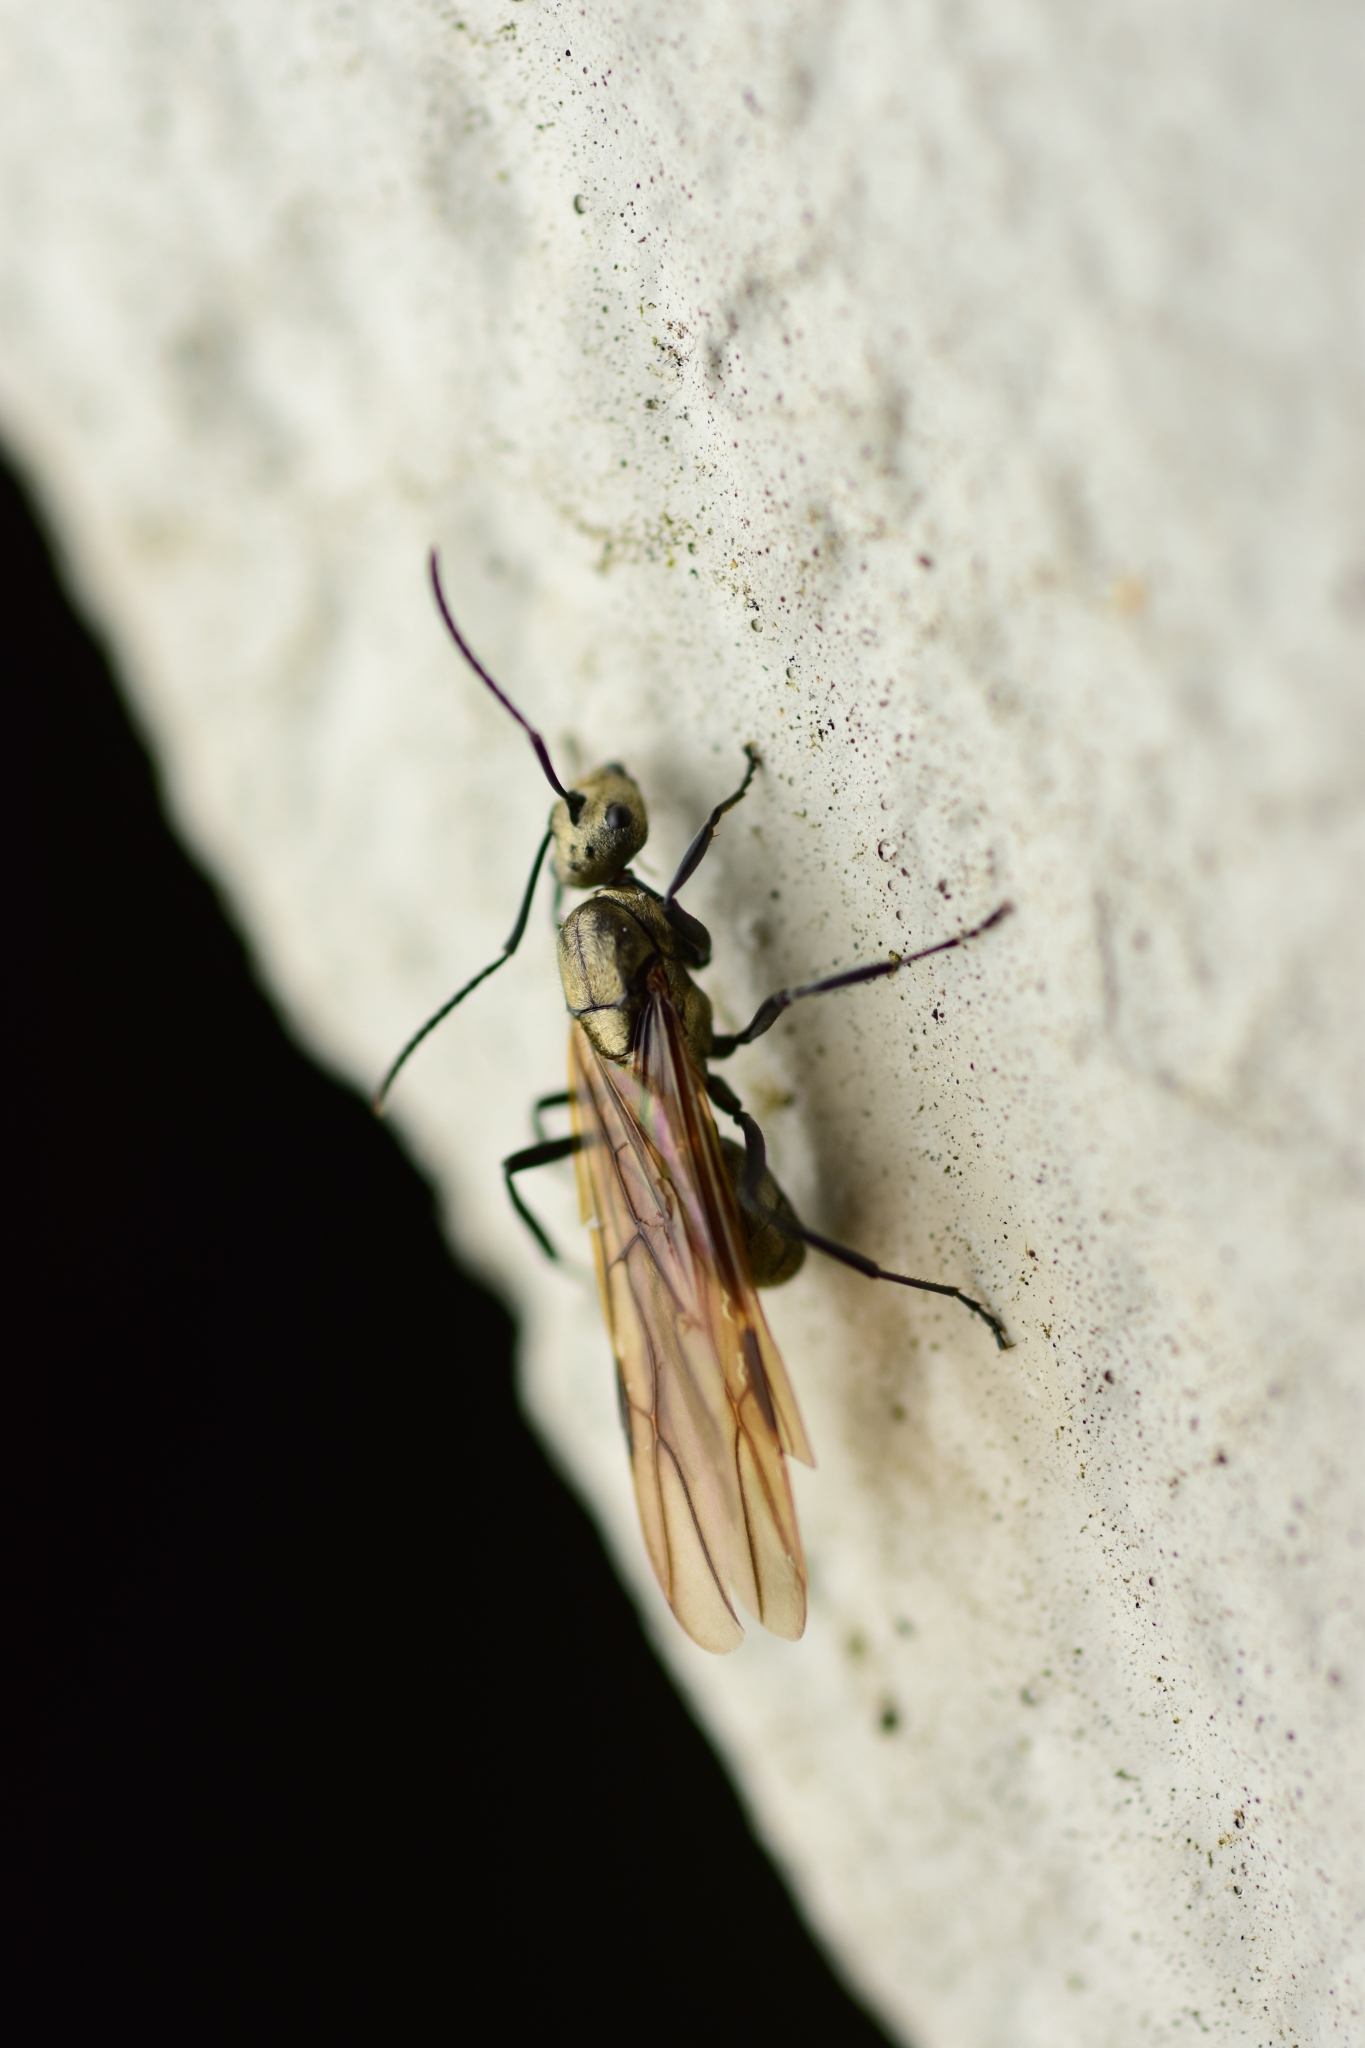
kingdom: Animalia
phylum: Arthropoda
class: Insecta
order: Hymenoptera
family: Formicidae
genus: Polyrhachis
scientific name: Polyrhachis cupreata
